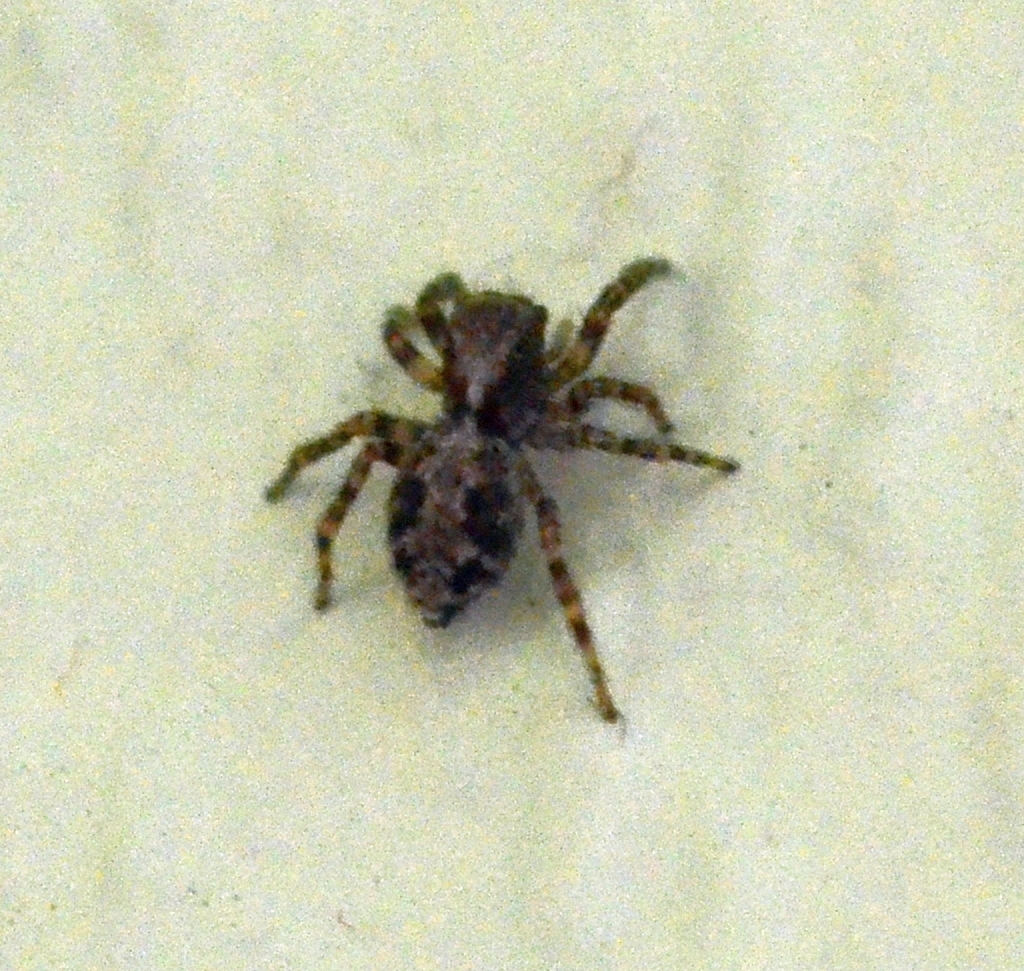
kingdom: Animalia
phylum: Arthropoda
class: Arachnida
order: Araneae
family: Salticidae
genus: Pseudeuophrys
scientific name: Pseudeuophrys lanigera
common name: Jumping spider
